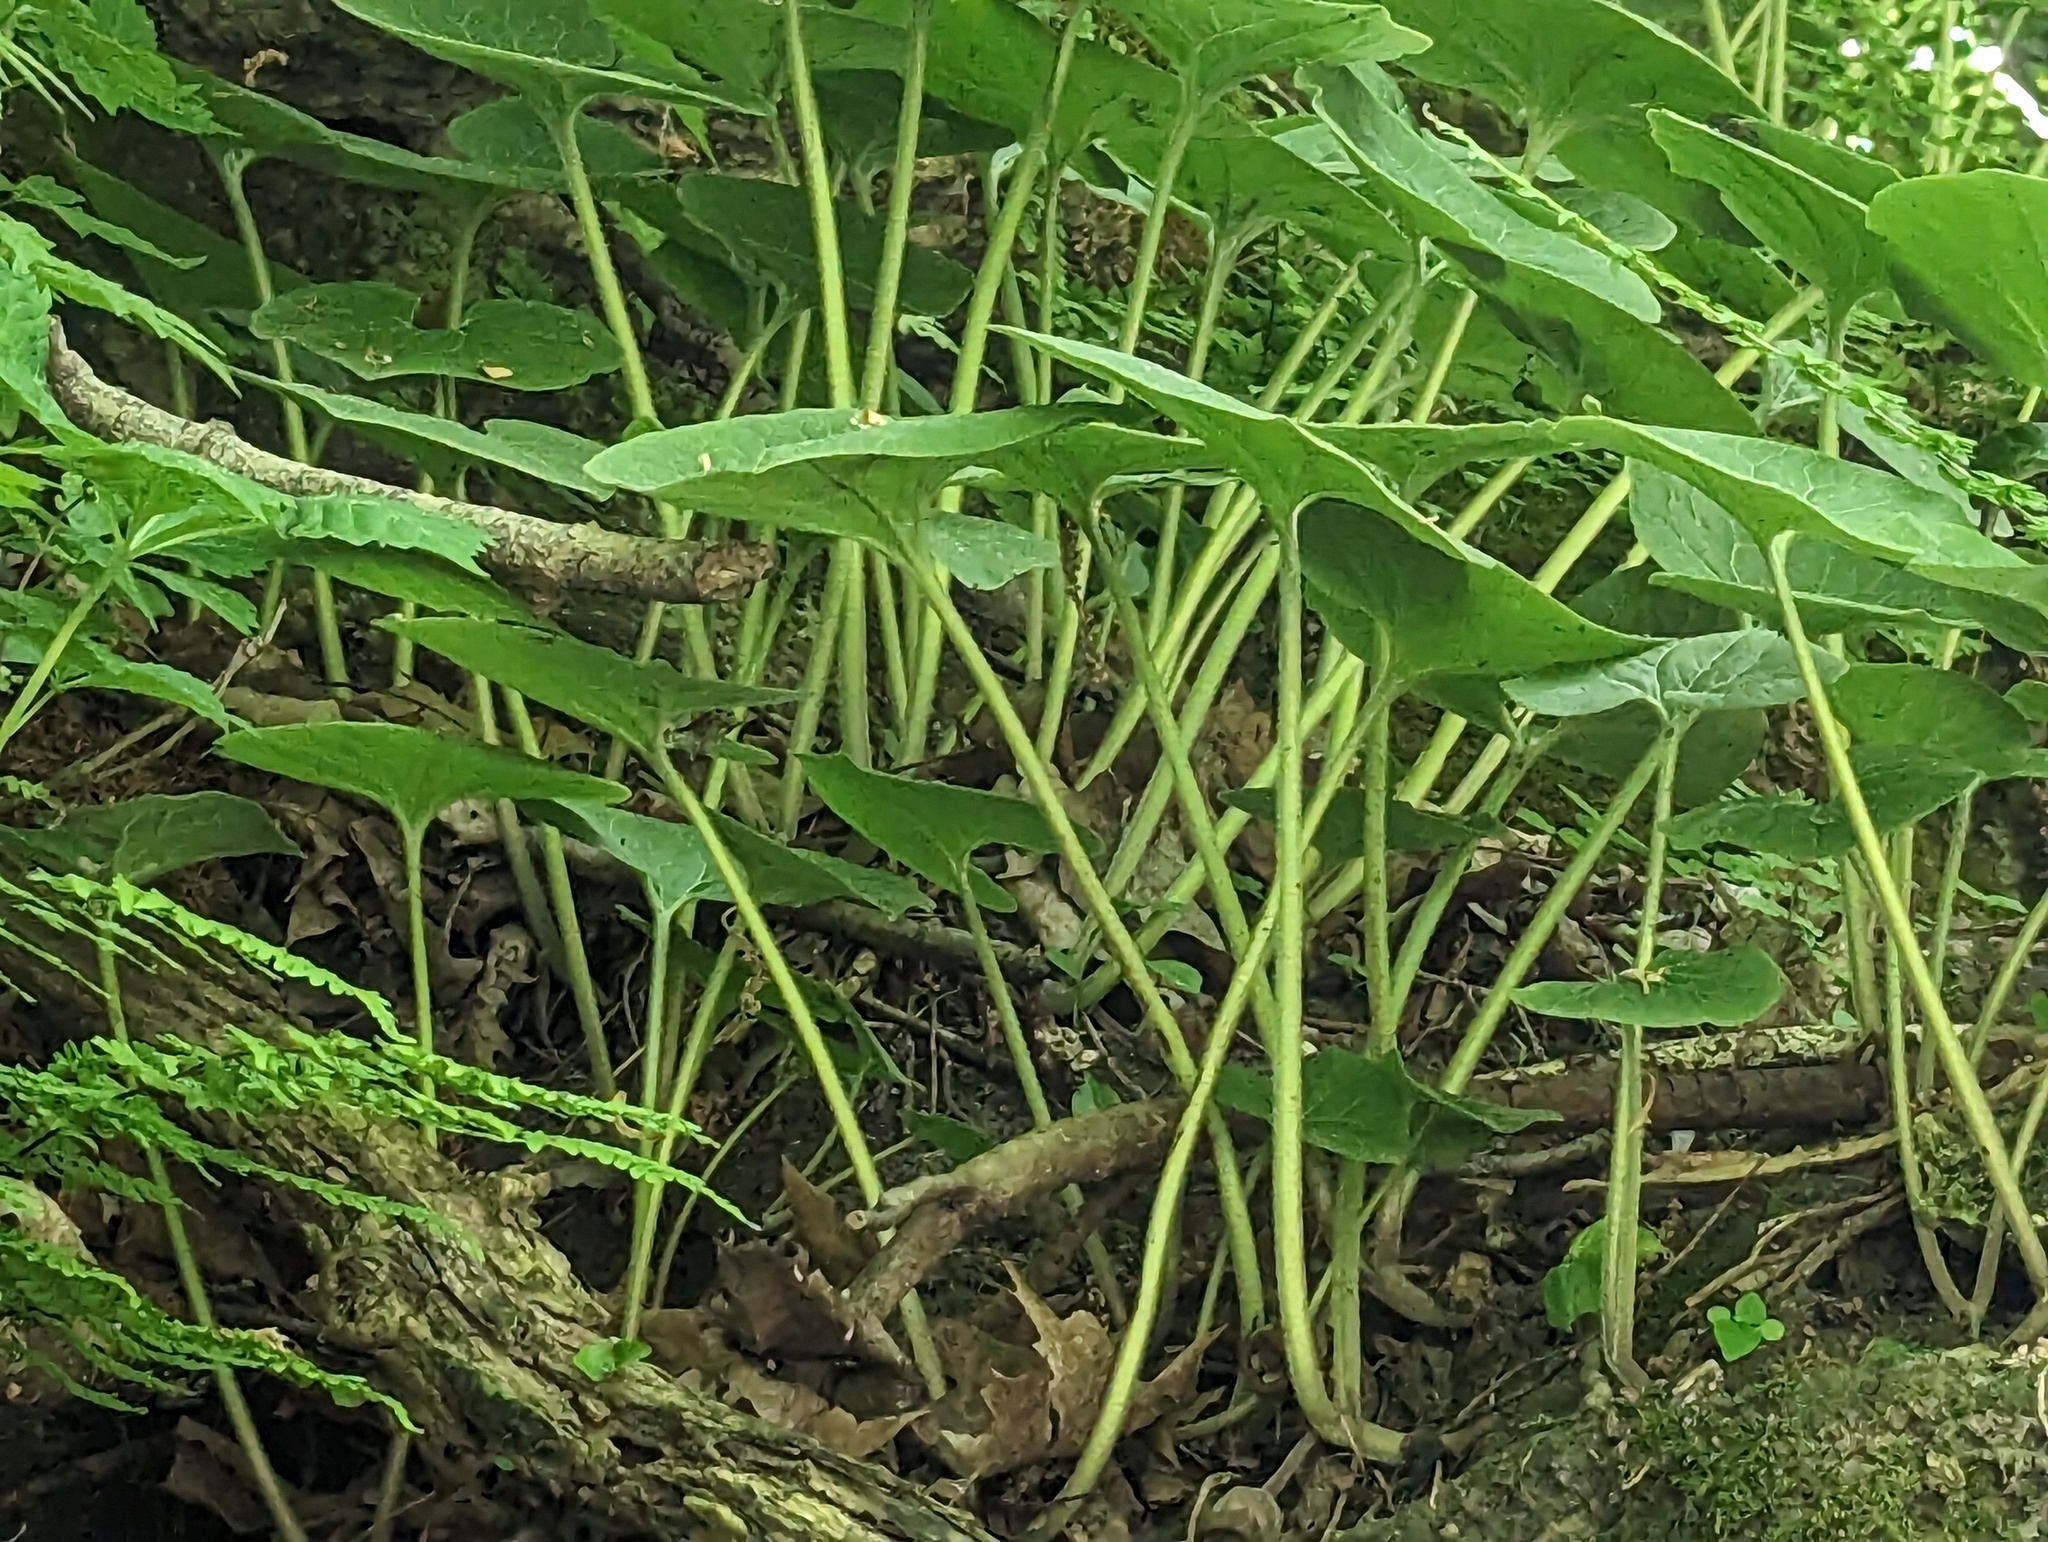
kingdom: Plantae
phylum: Tracheophyta
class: Magnoliopsida
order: Piperales
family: Aristolochiaceae
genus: Asarum
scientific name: Asarum canadense
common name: Wild ginger
